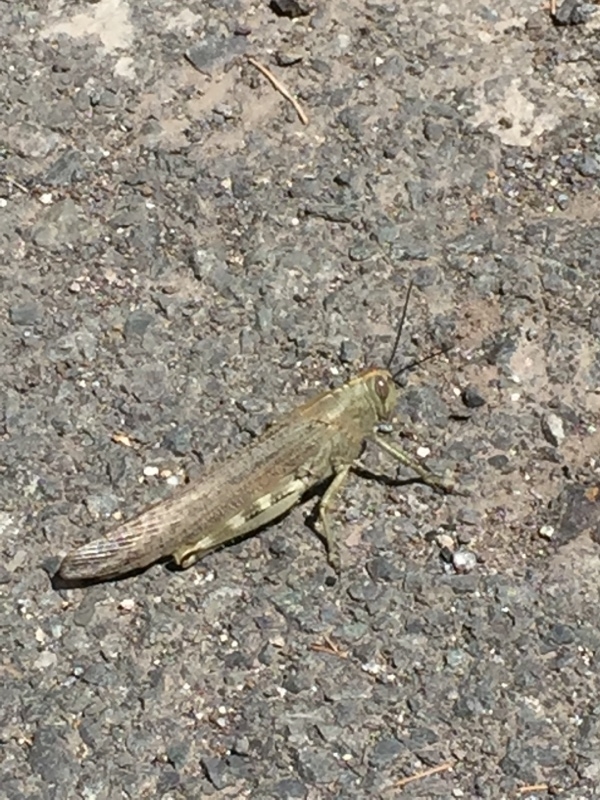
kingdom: Animalia
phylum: Arthropoda
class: Insecta
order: Orthoptera
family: Acrididae
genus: Anacridium
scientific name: Anacridium aegyptium
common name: Egyptian grasshopper
